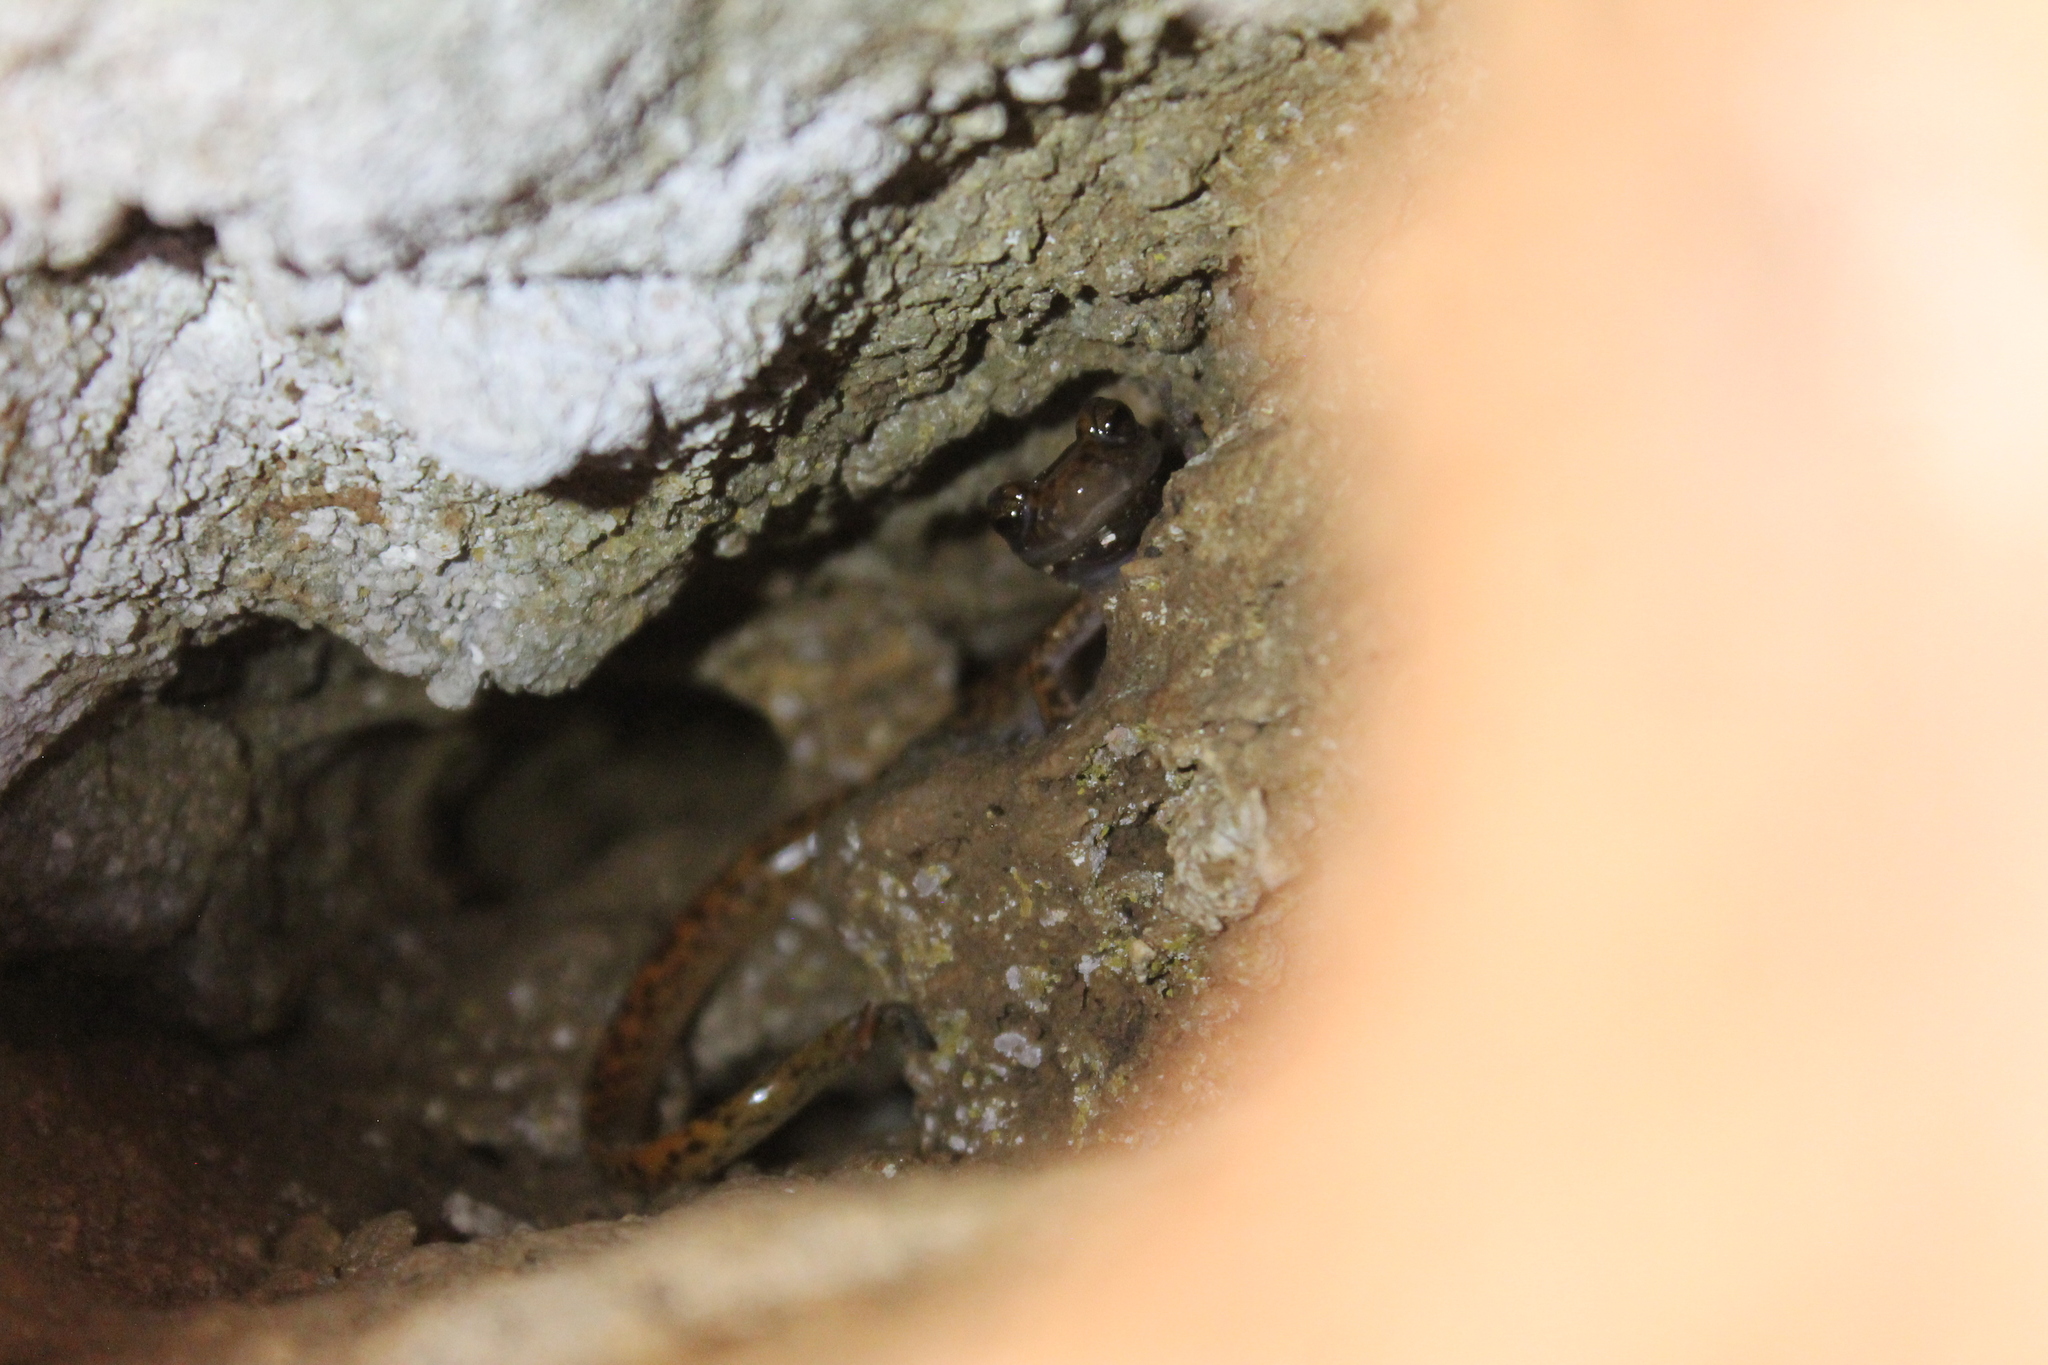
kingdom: Animalia
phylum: Chordata
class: Amphibia
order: Caudata
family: Plethodontidae
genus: Eurycea
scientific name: Eurycea lucifuga
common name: Cave salamander
